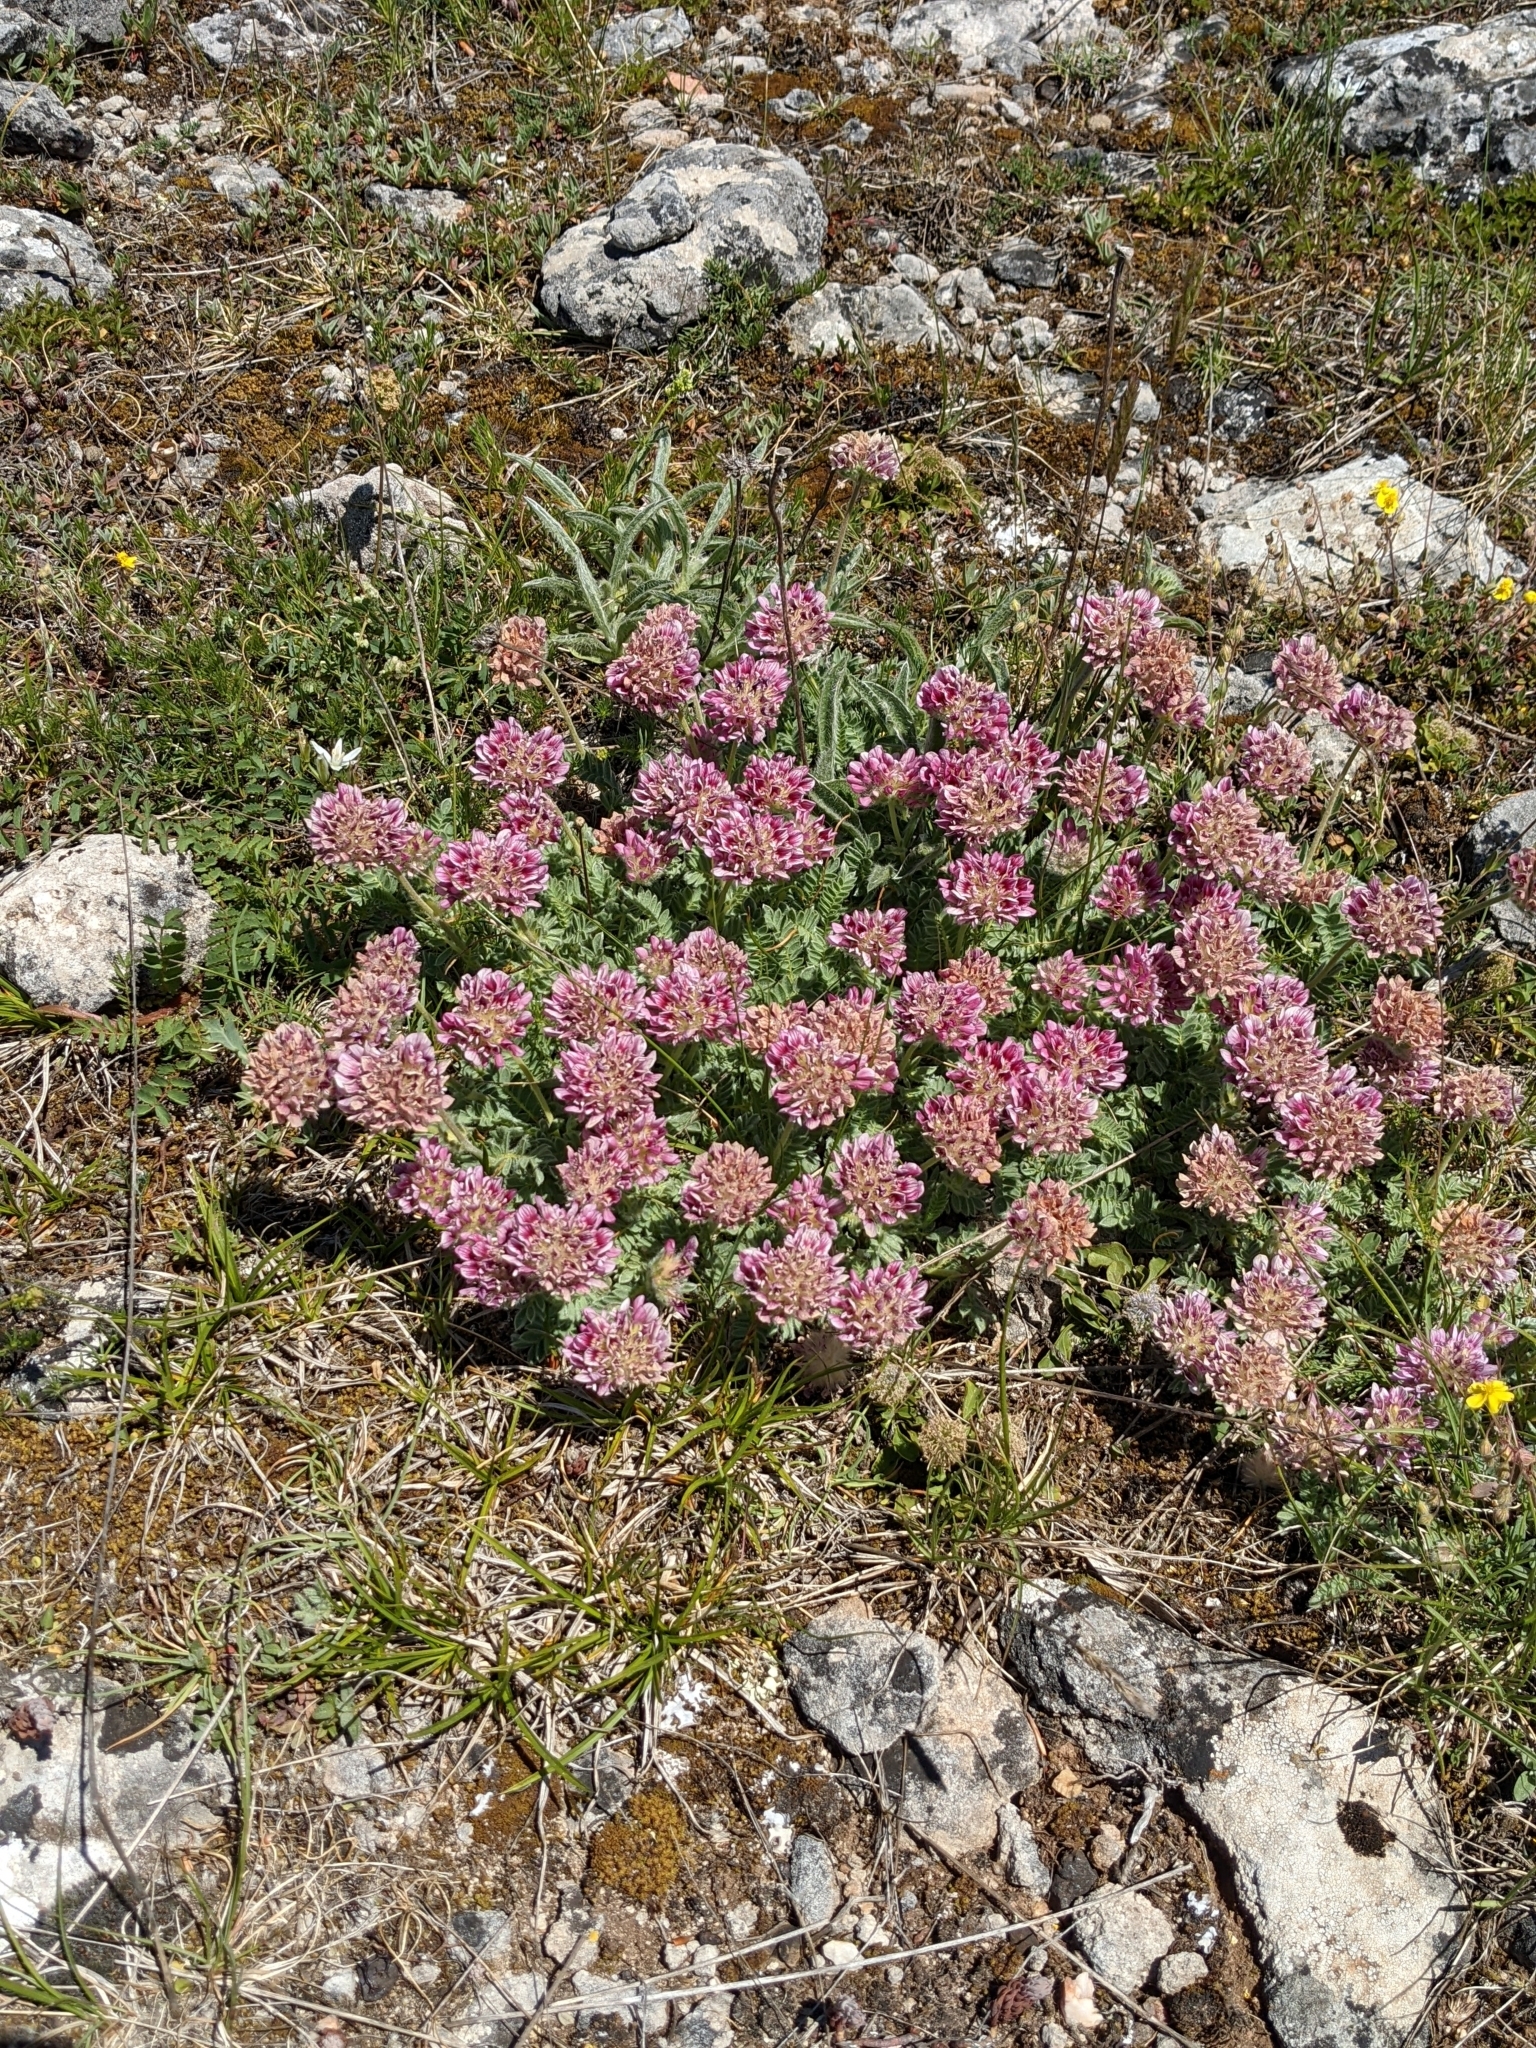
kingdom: Plantae
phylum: Tracheophyta
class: Magnoliopsida
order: Fabales
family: Fabaceae
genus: Anthyllis
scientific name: Anthyllis montana
